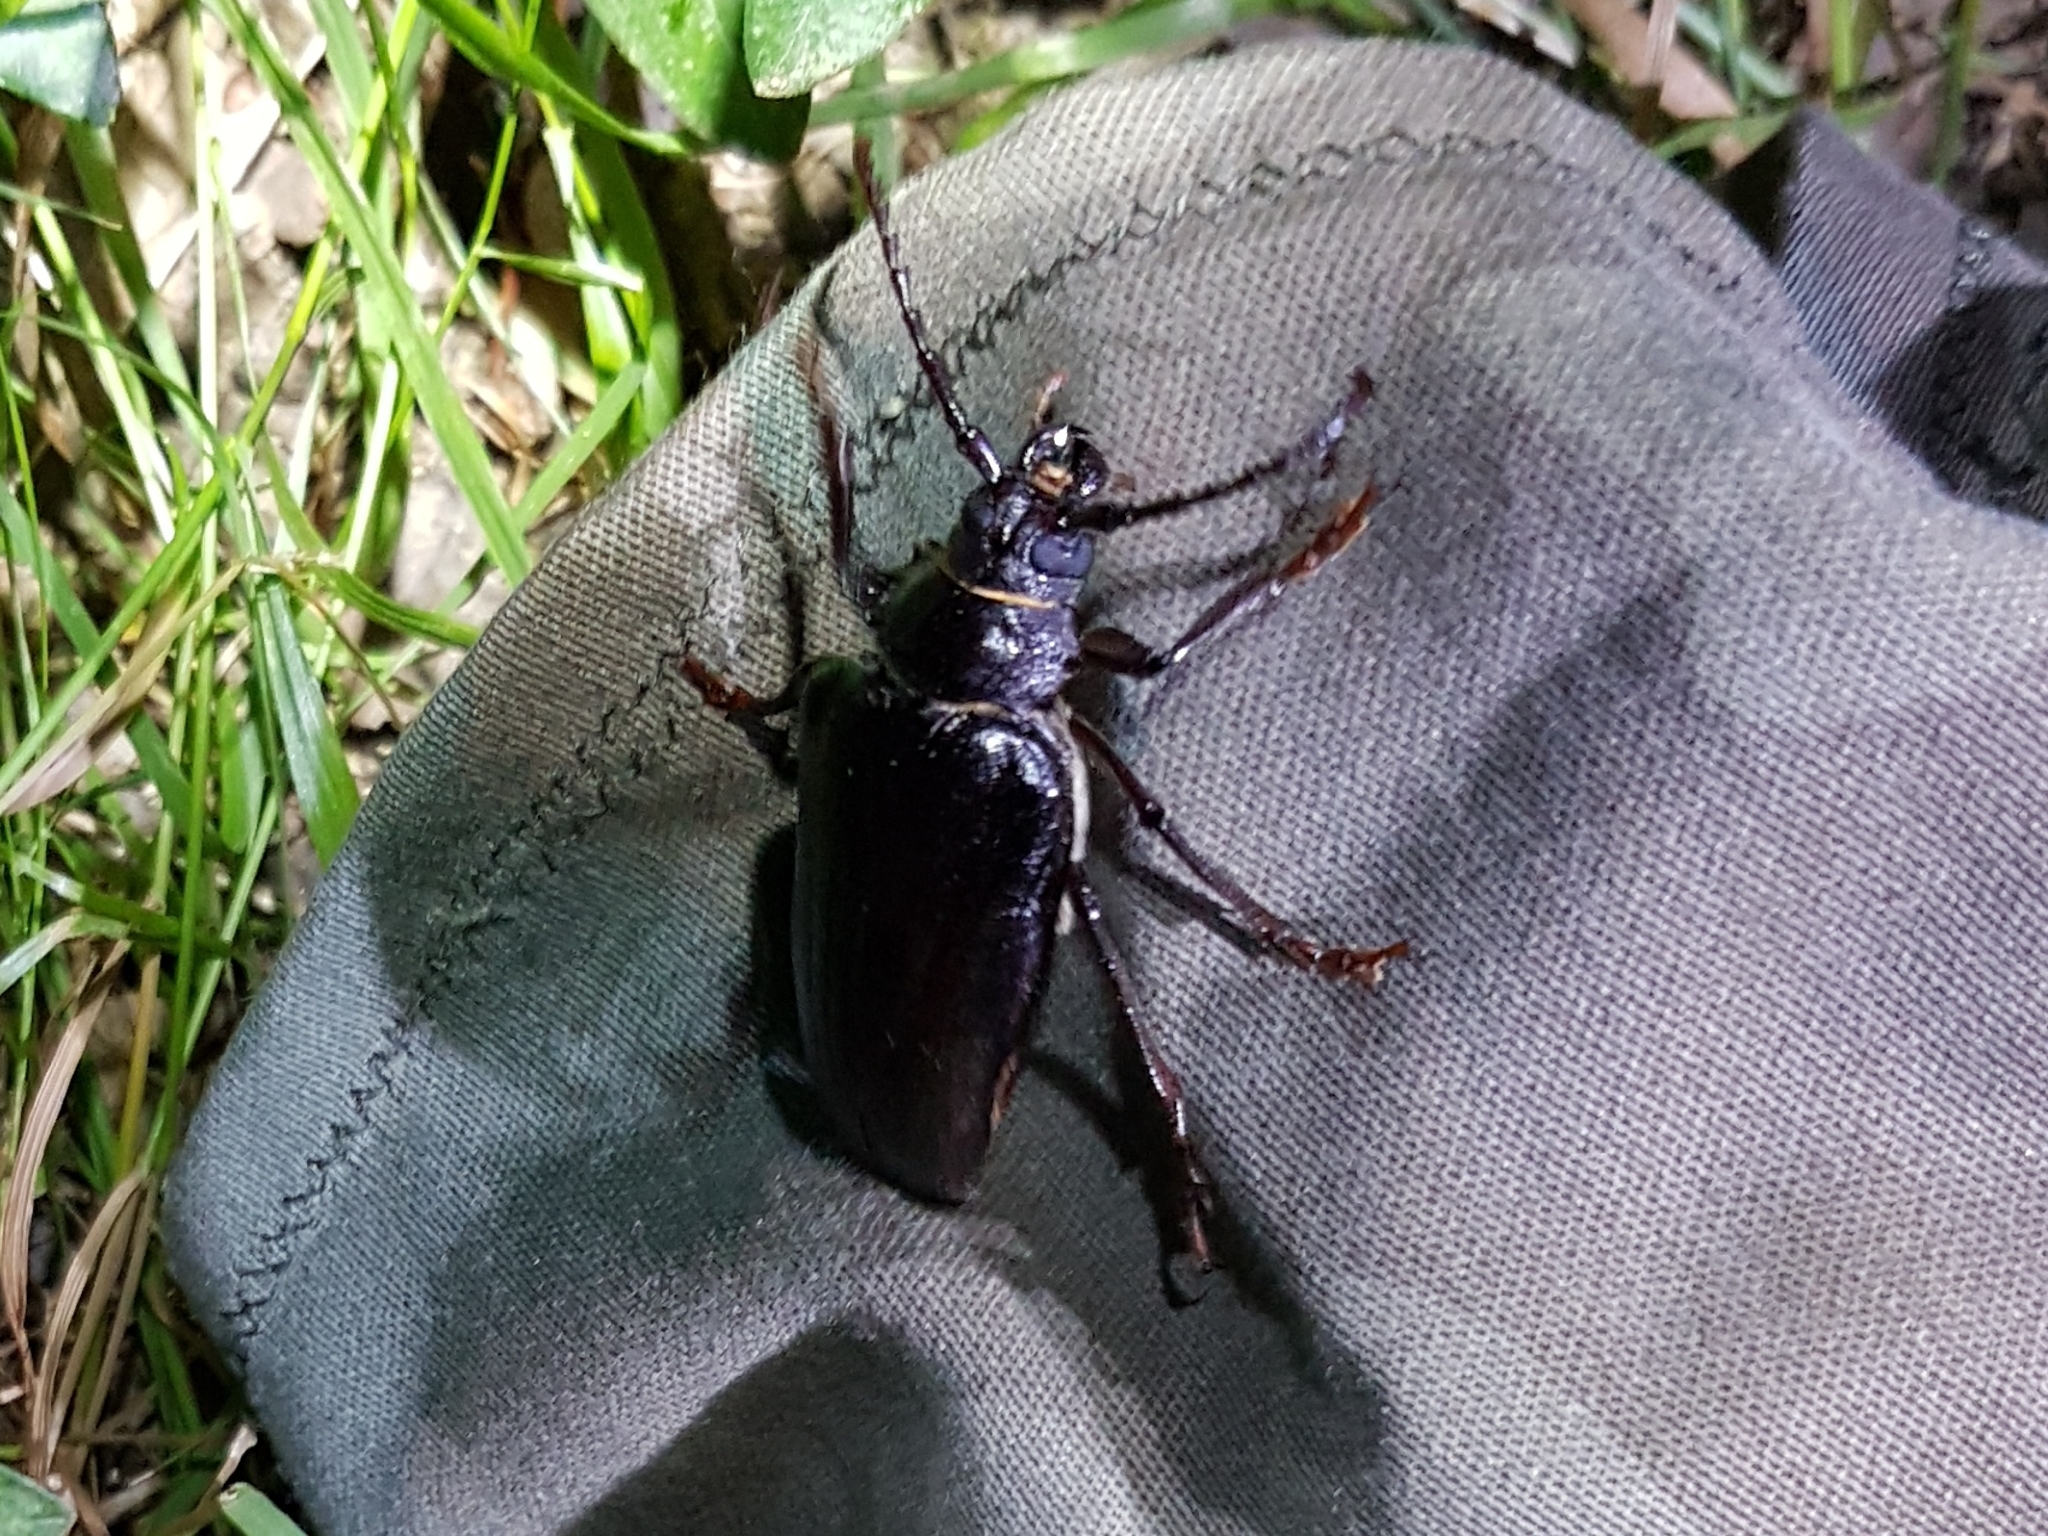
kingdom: Animalia
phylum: Arthropoda
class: Insecta
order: Coleoptera
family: Cerambycidae
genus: Prionus
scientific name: Prionus coriarius
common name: Tanner beetle
